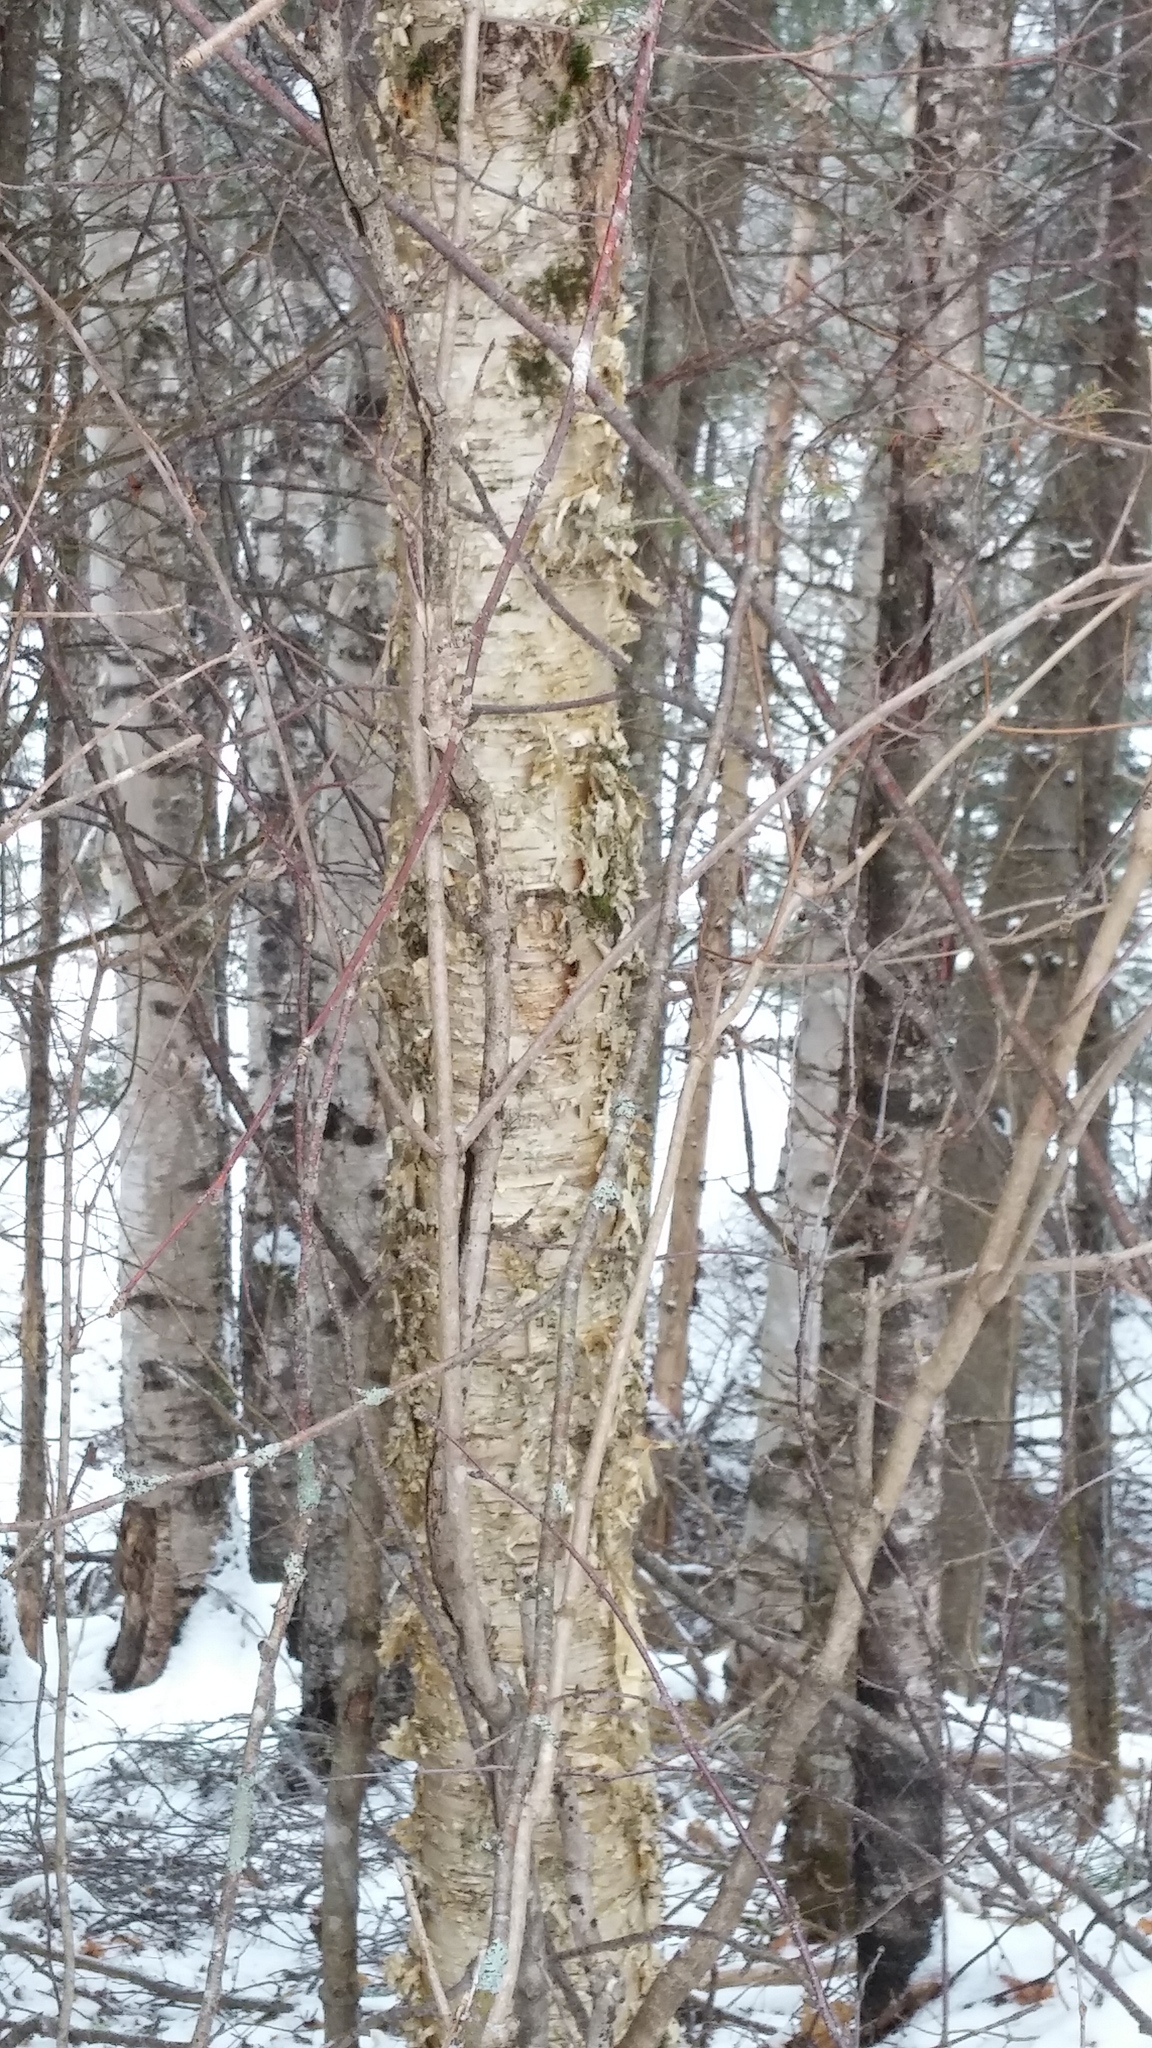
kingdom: Plantae
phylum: Tracheophyta
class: Magnoliopsida
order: Fagales
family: Betulaceae
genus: Betula
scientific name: Betula alleghaniensis
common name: Yellow birch
